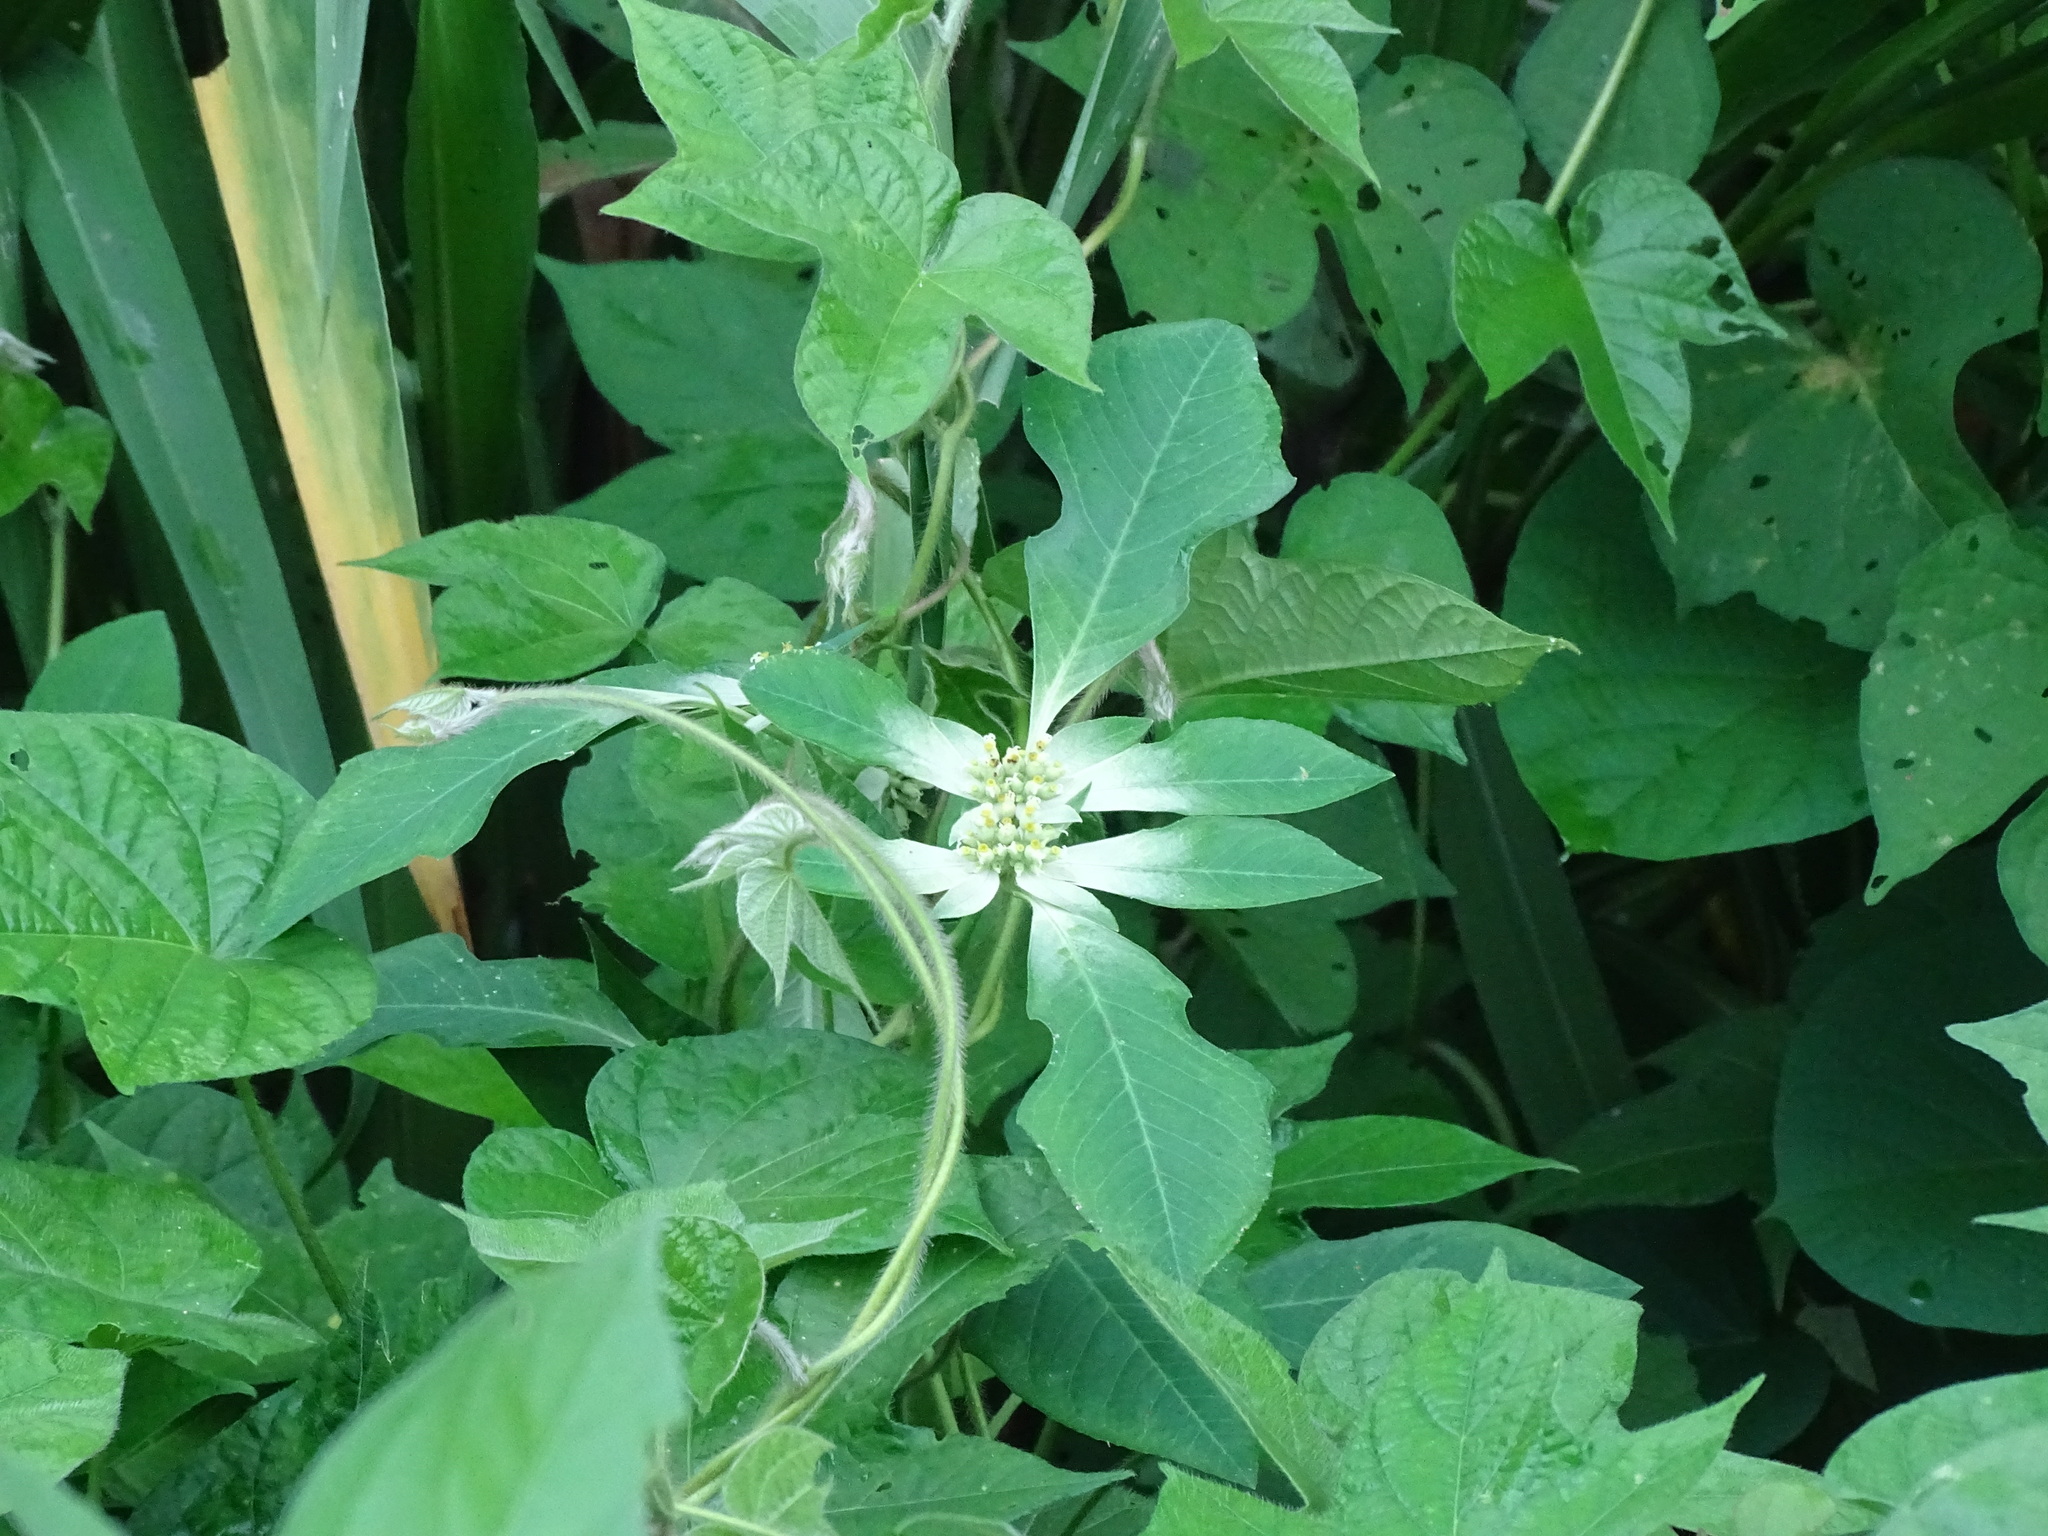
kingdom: Plantae
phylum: Tracheophyta
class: Magnoliopsida
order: Malpighiales
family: Euphorbiaceae
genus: Euphorbia
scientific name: Euphorbia heterophylla
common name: Mexican fireplant
